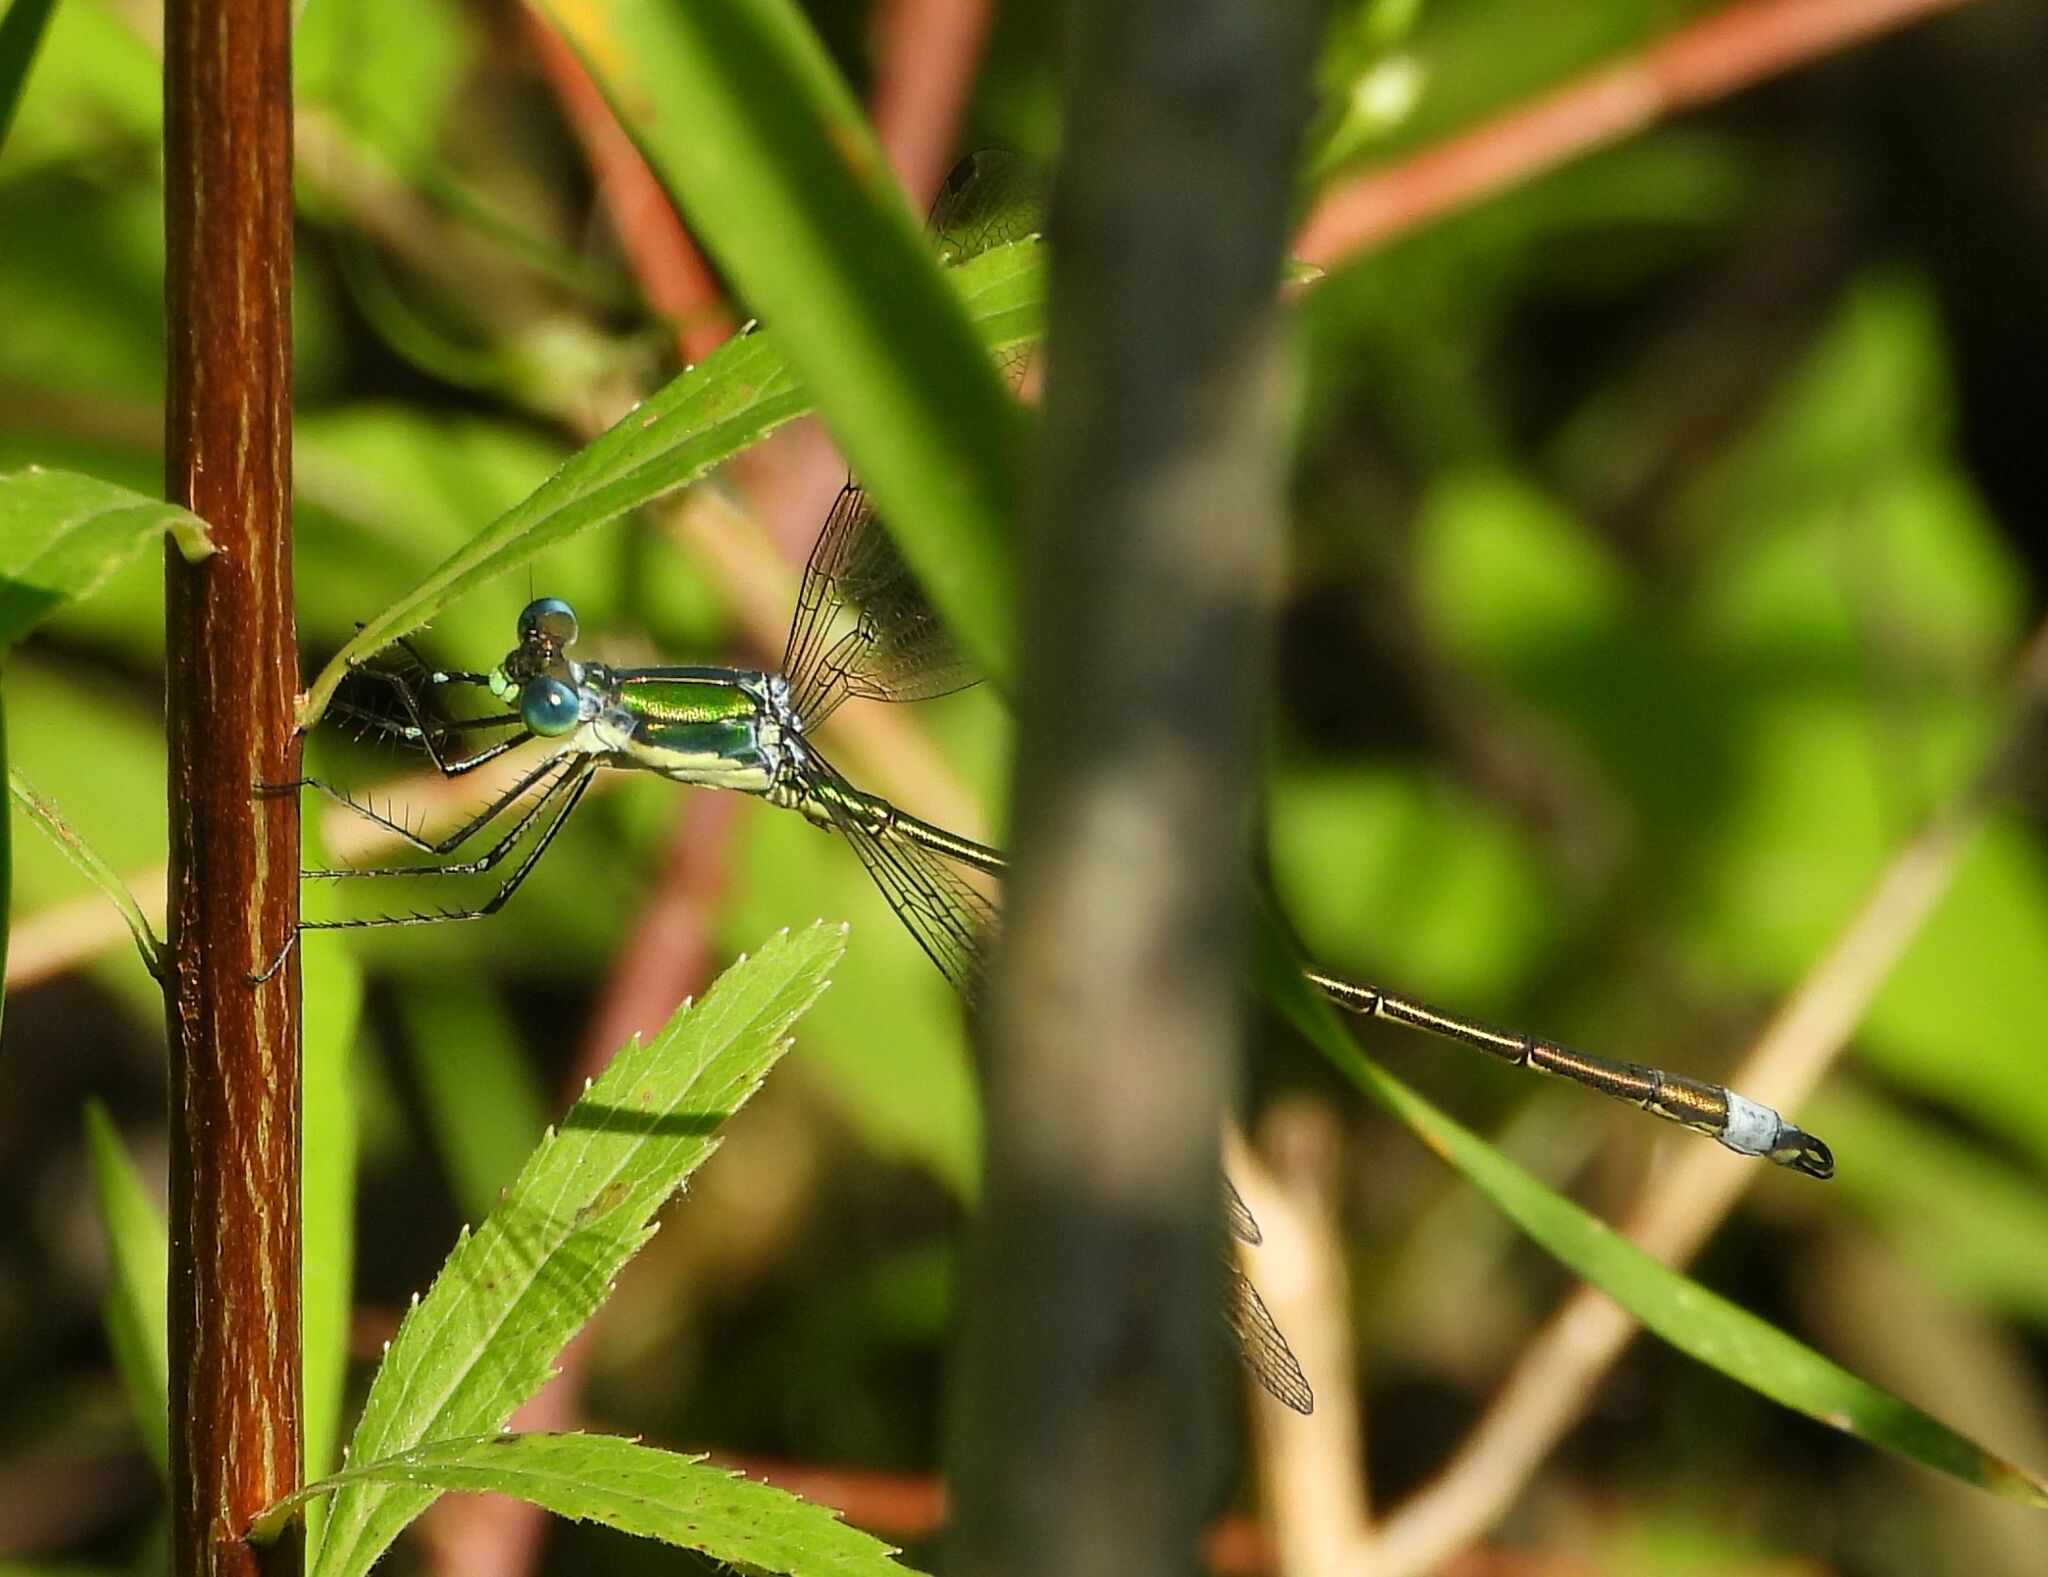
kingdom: Animalia
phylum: Arthropoda
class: Insecta
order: Odonata
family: Lestidae
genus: Lestes
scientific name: Lestes inaequalis
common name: Elegant spreadwing
